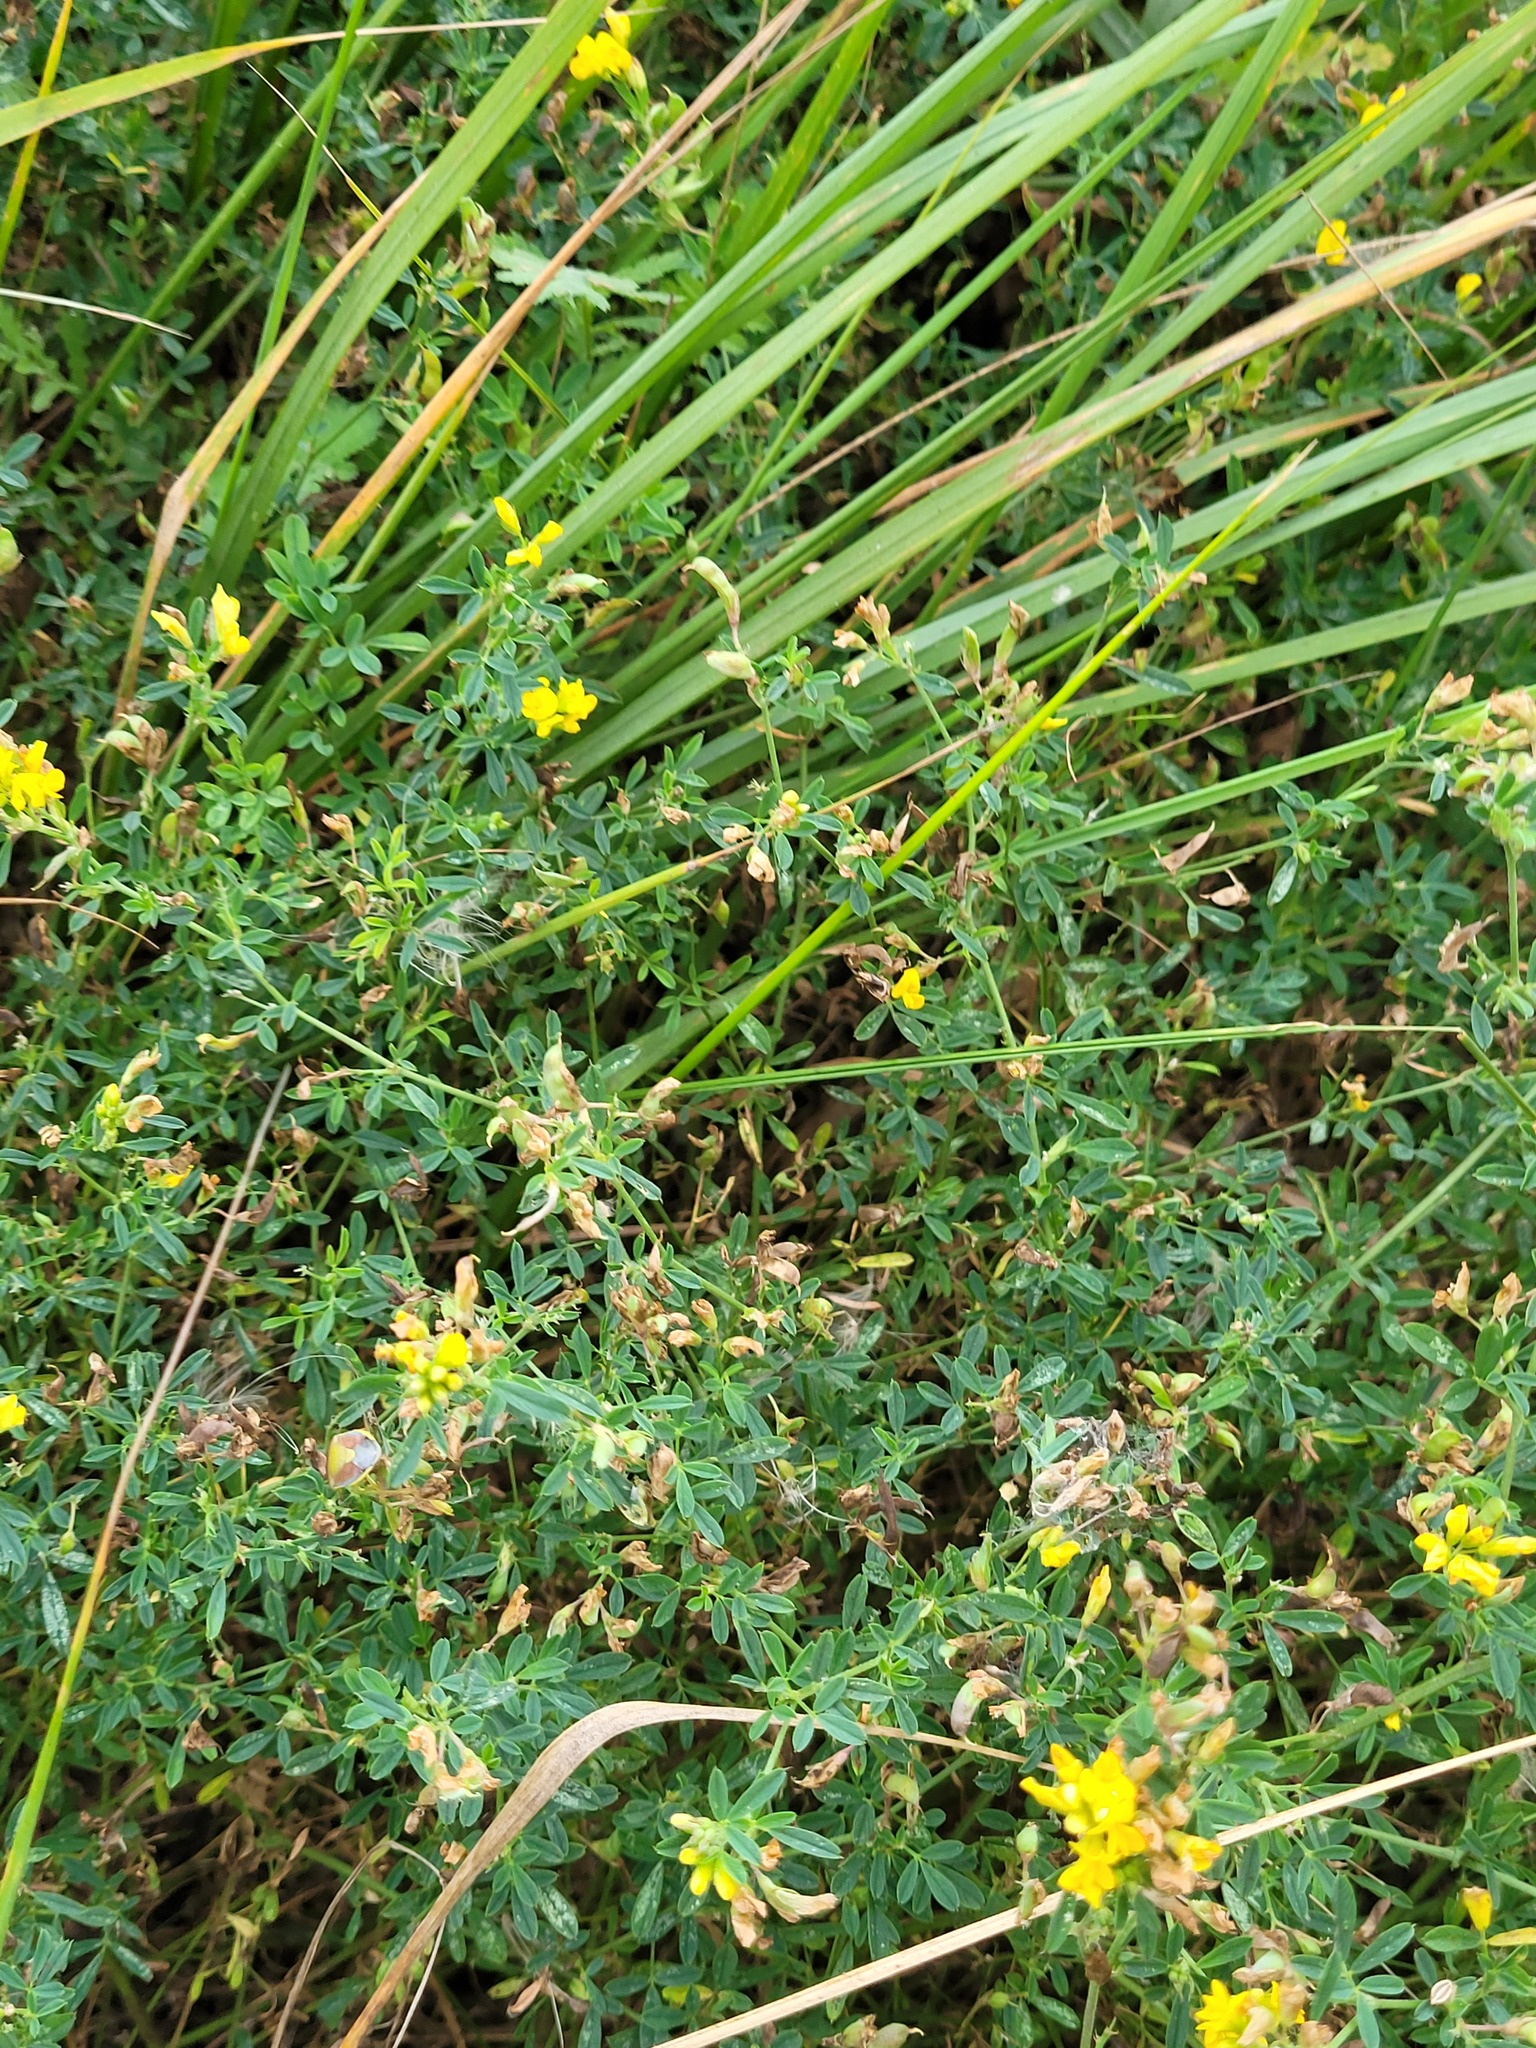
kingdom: Plantae
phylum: Tracheophyta
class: Magnoliopsida
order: Fabales
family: Fabaceae
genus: Medicago
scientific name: Medicago falcata
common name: Sickle medick
